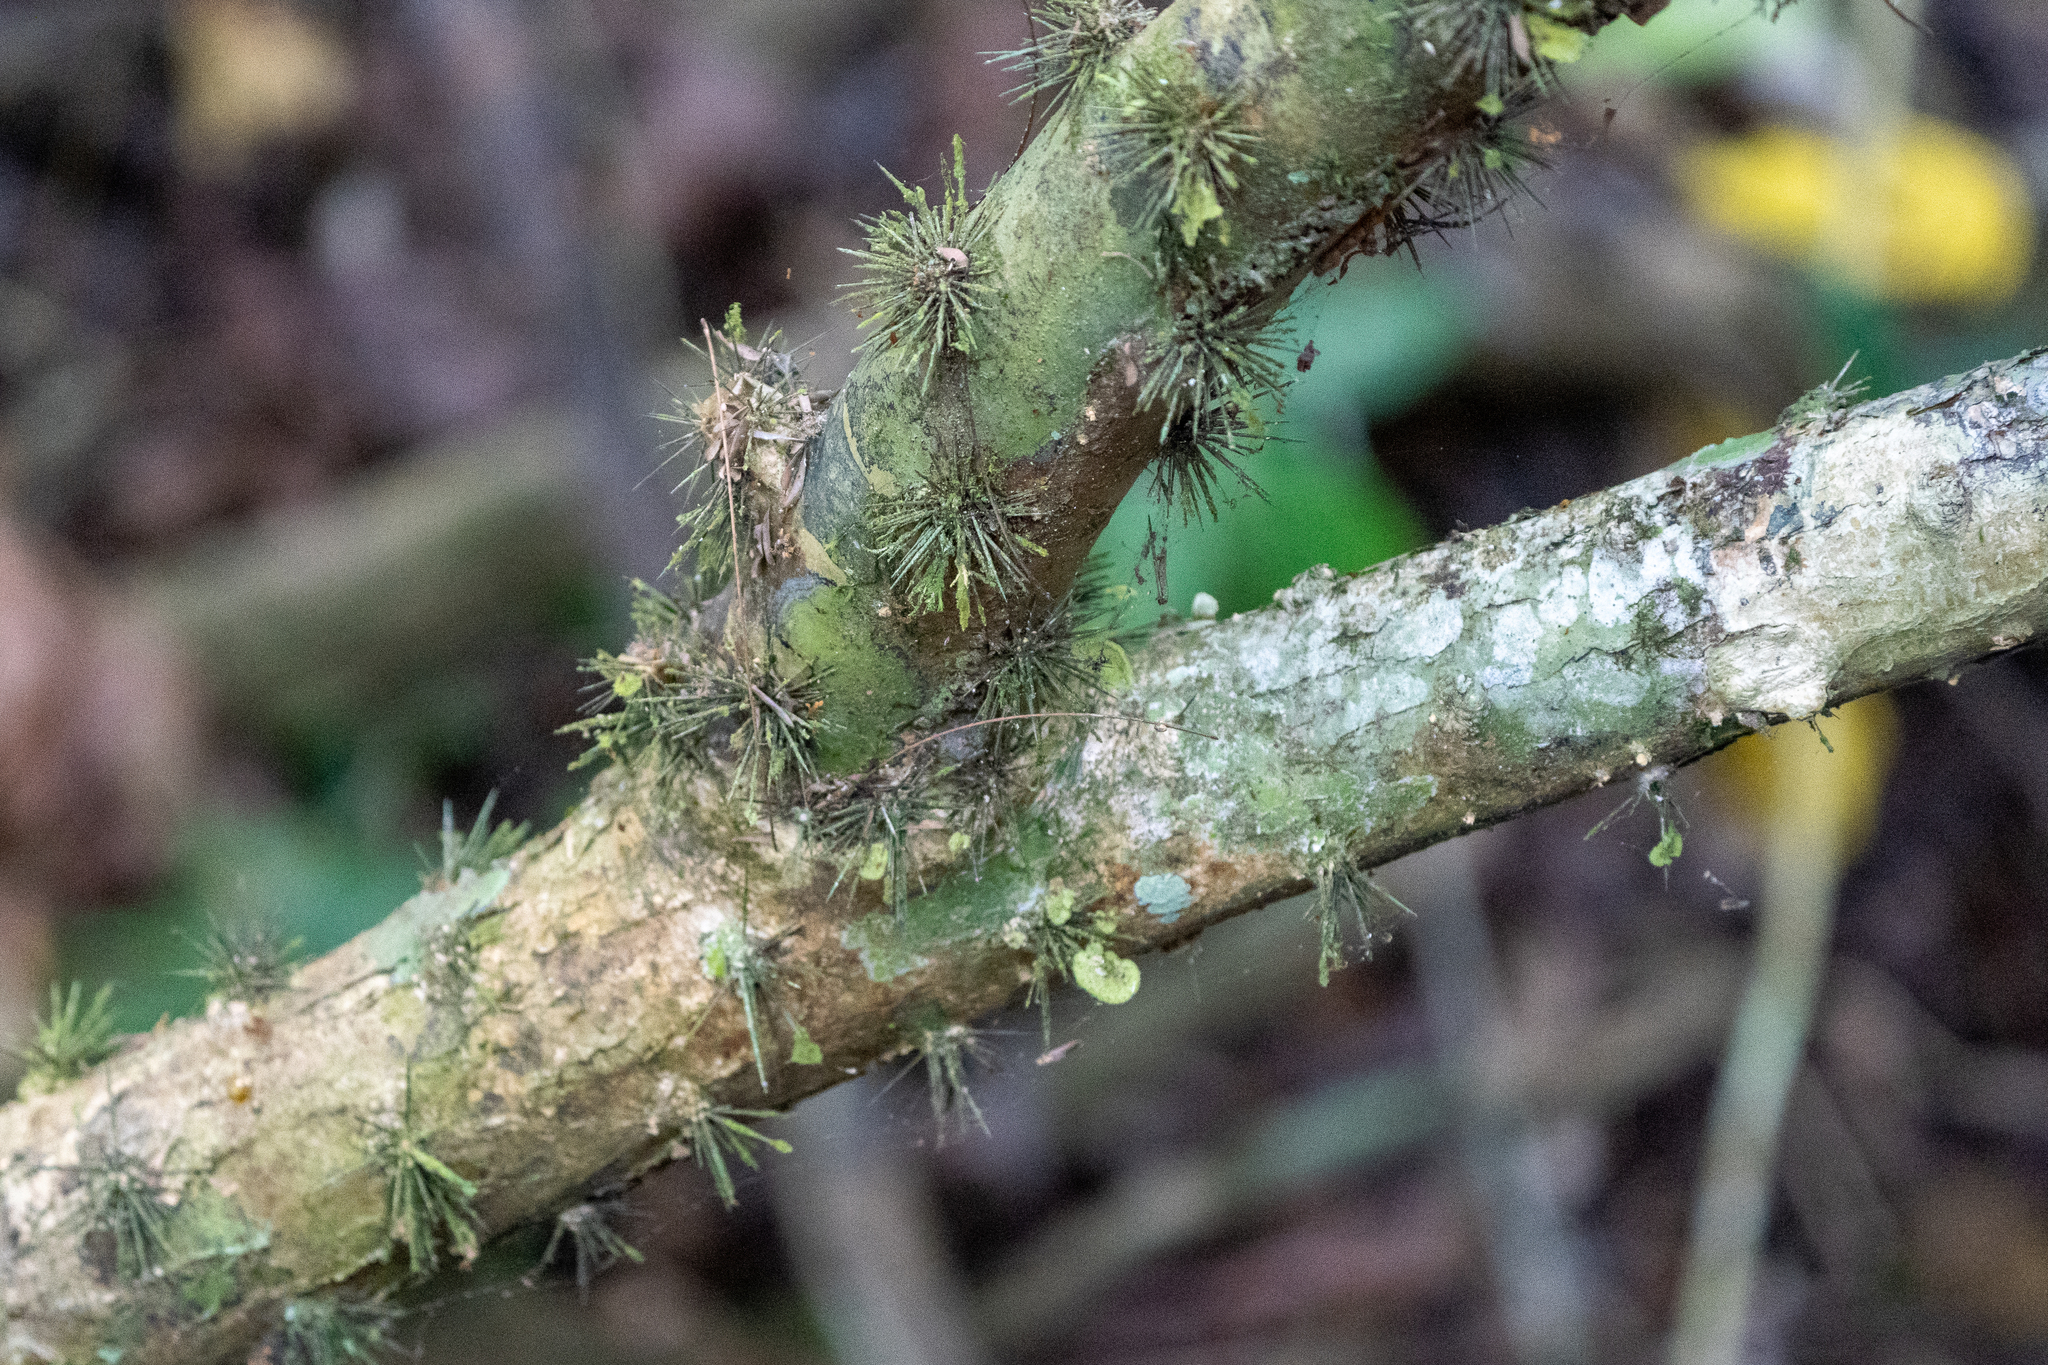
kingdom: Plantae
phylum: Tracheophyta
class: Magnoliopsida
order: Caryophyllales
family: Cactaceae
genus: Leuenbergeria
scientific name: Leuenbergeria bleo
